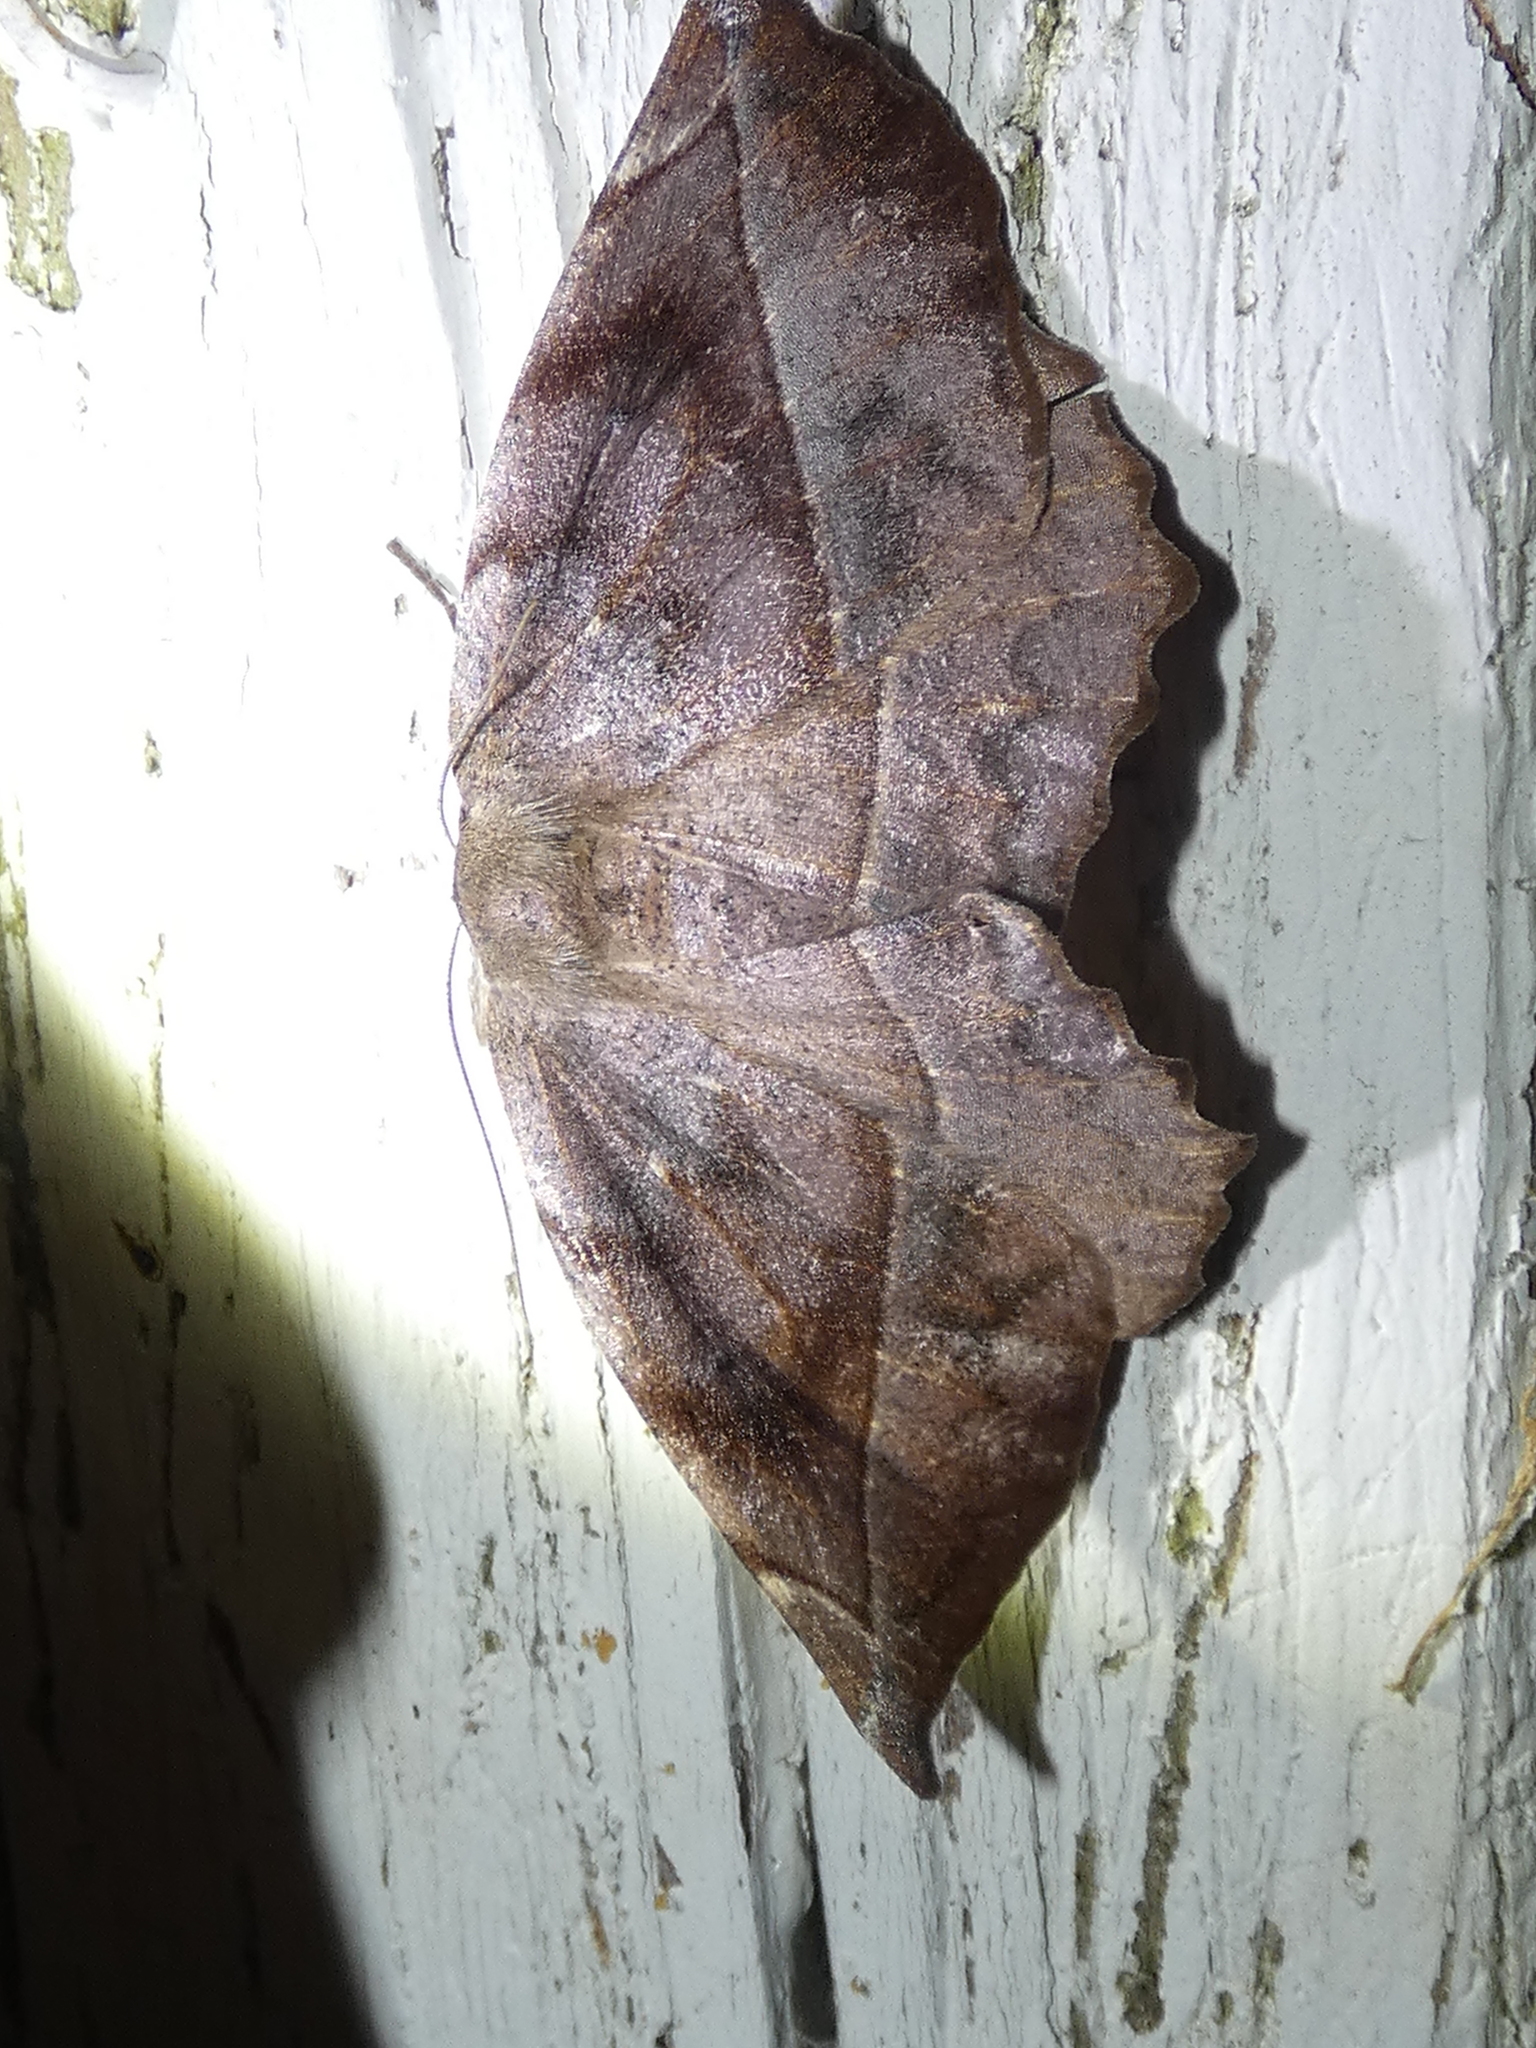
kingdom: Animalia
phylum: Arthropoda
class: Insecta
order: Lepidoptera
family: Geometridae
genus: Eutrapela
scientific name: Eutrapela clemataria
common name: Curved-toothed geometer
